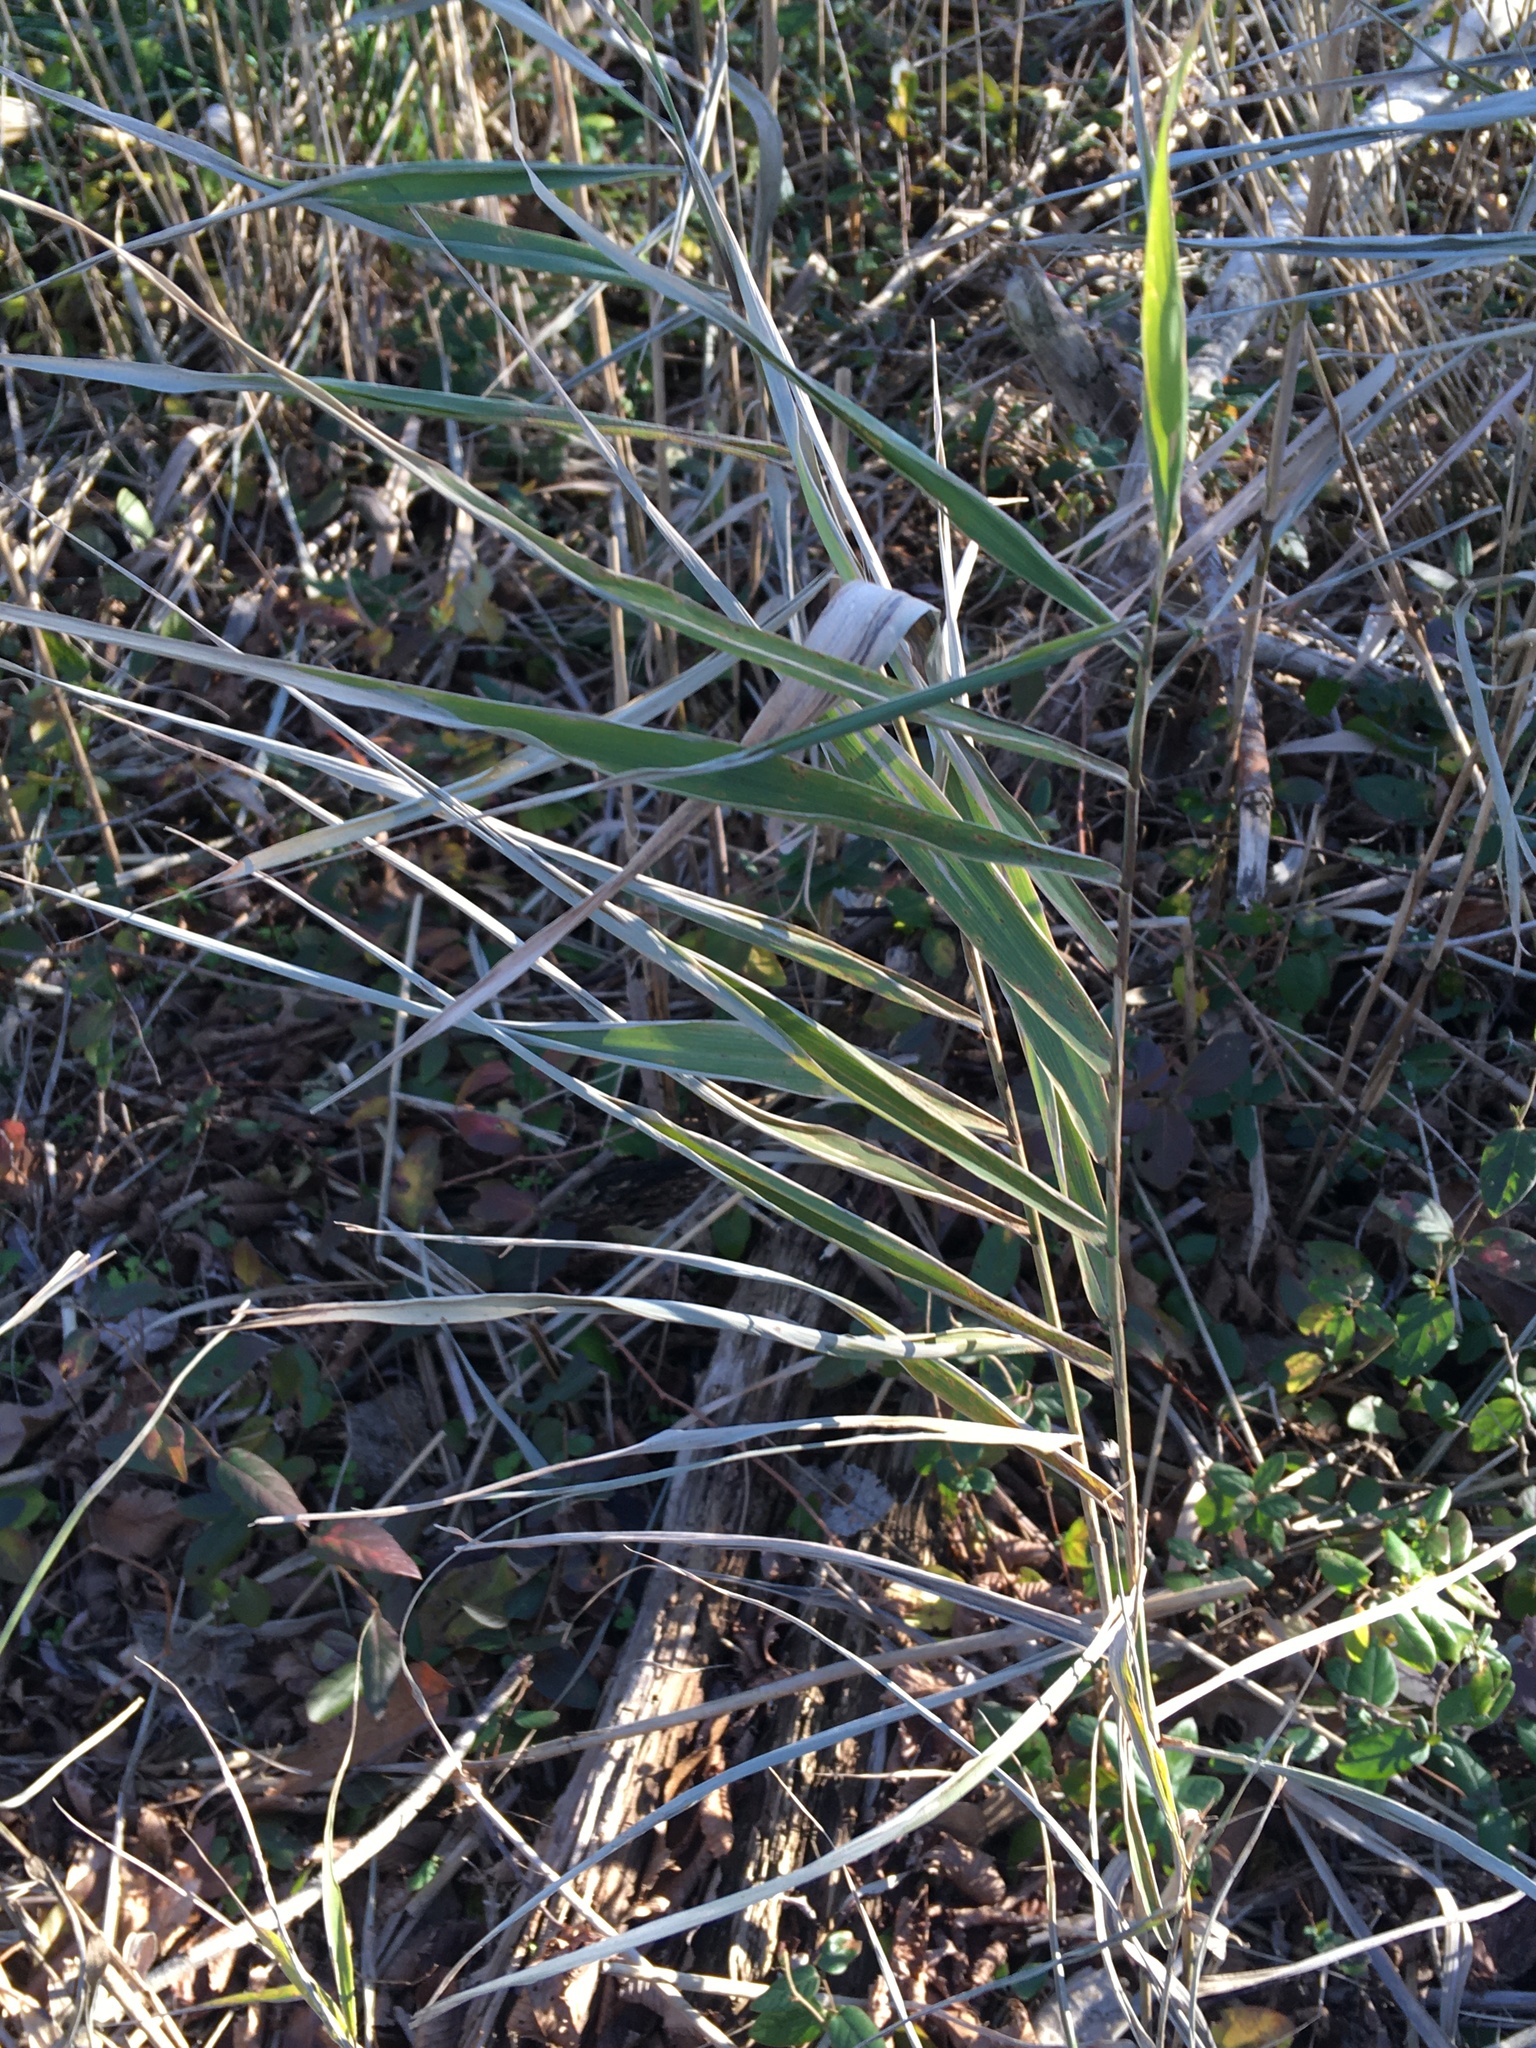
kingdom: Plantae
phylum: Tracheophyta
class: Liliopsida
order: Poales
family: Poaceae
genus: Phragmites
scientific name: Phragmites australis
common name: Common reed
